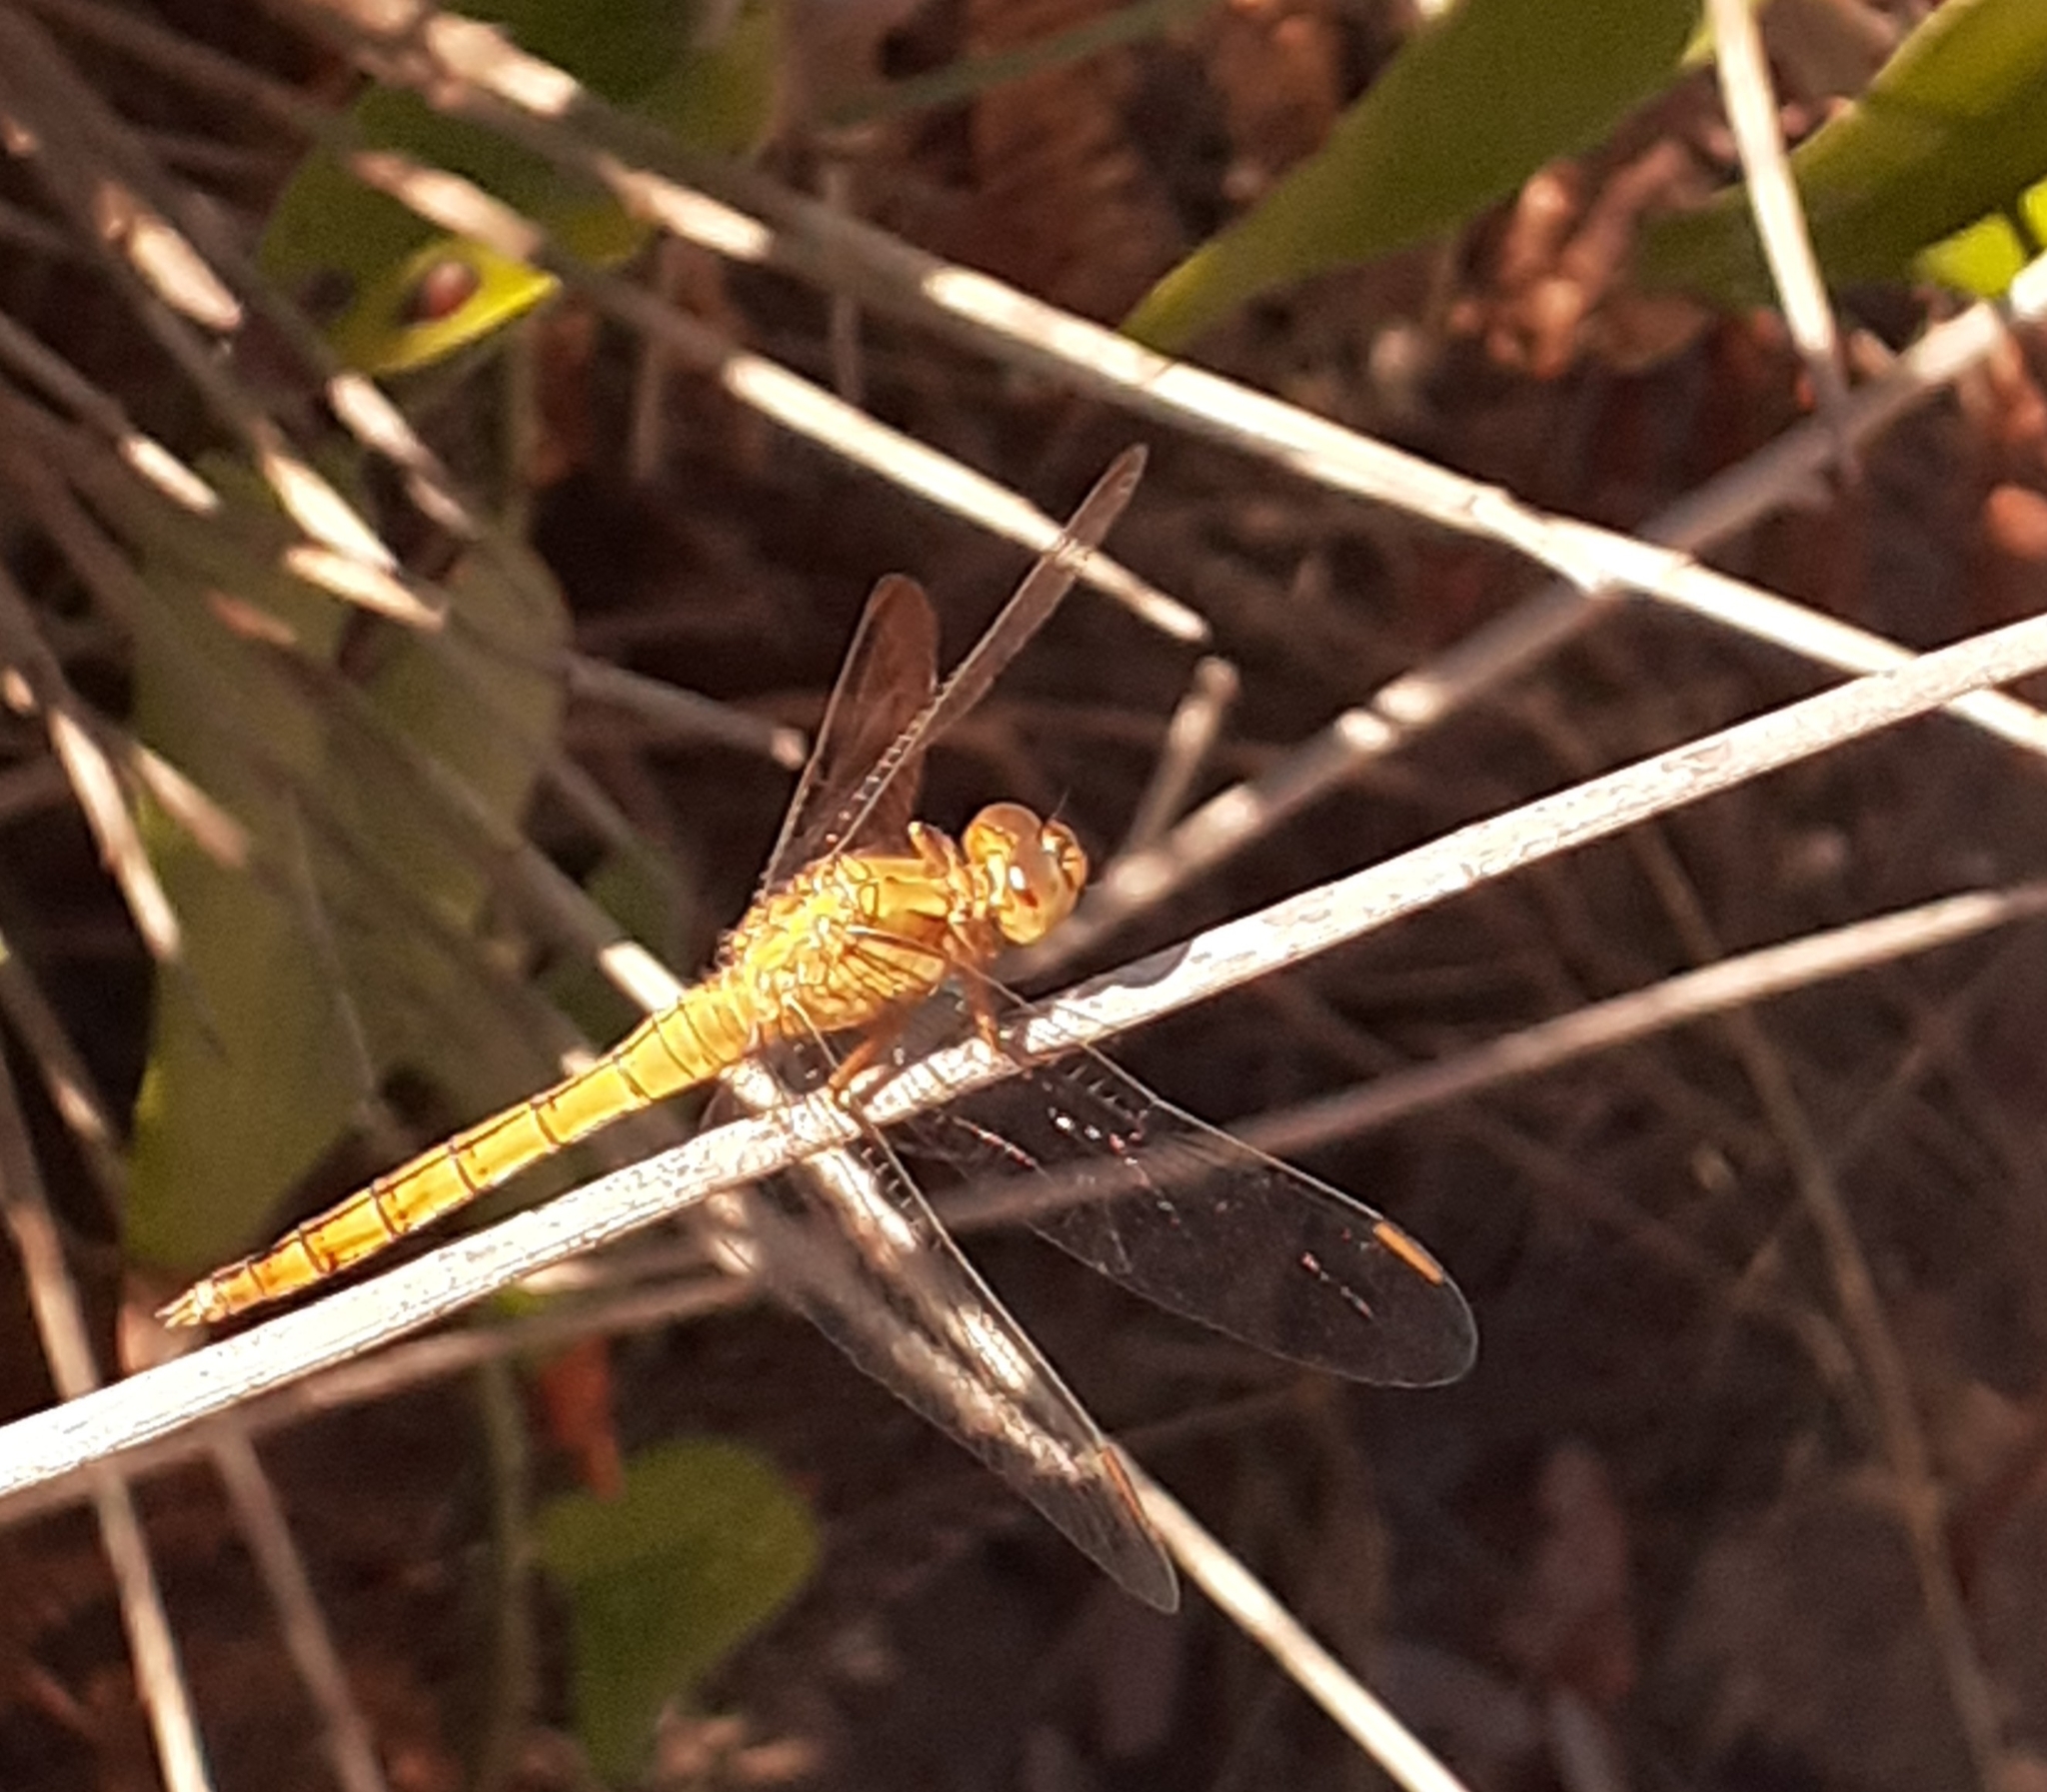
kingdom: Animalia
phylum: Arthropoda
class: Insecta
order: Odonata
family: Libellulidae
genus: Orthetrum
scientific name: Orthetrum coerulescens
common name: Keeled skimmer
